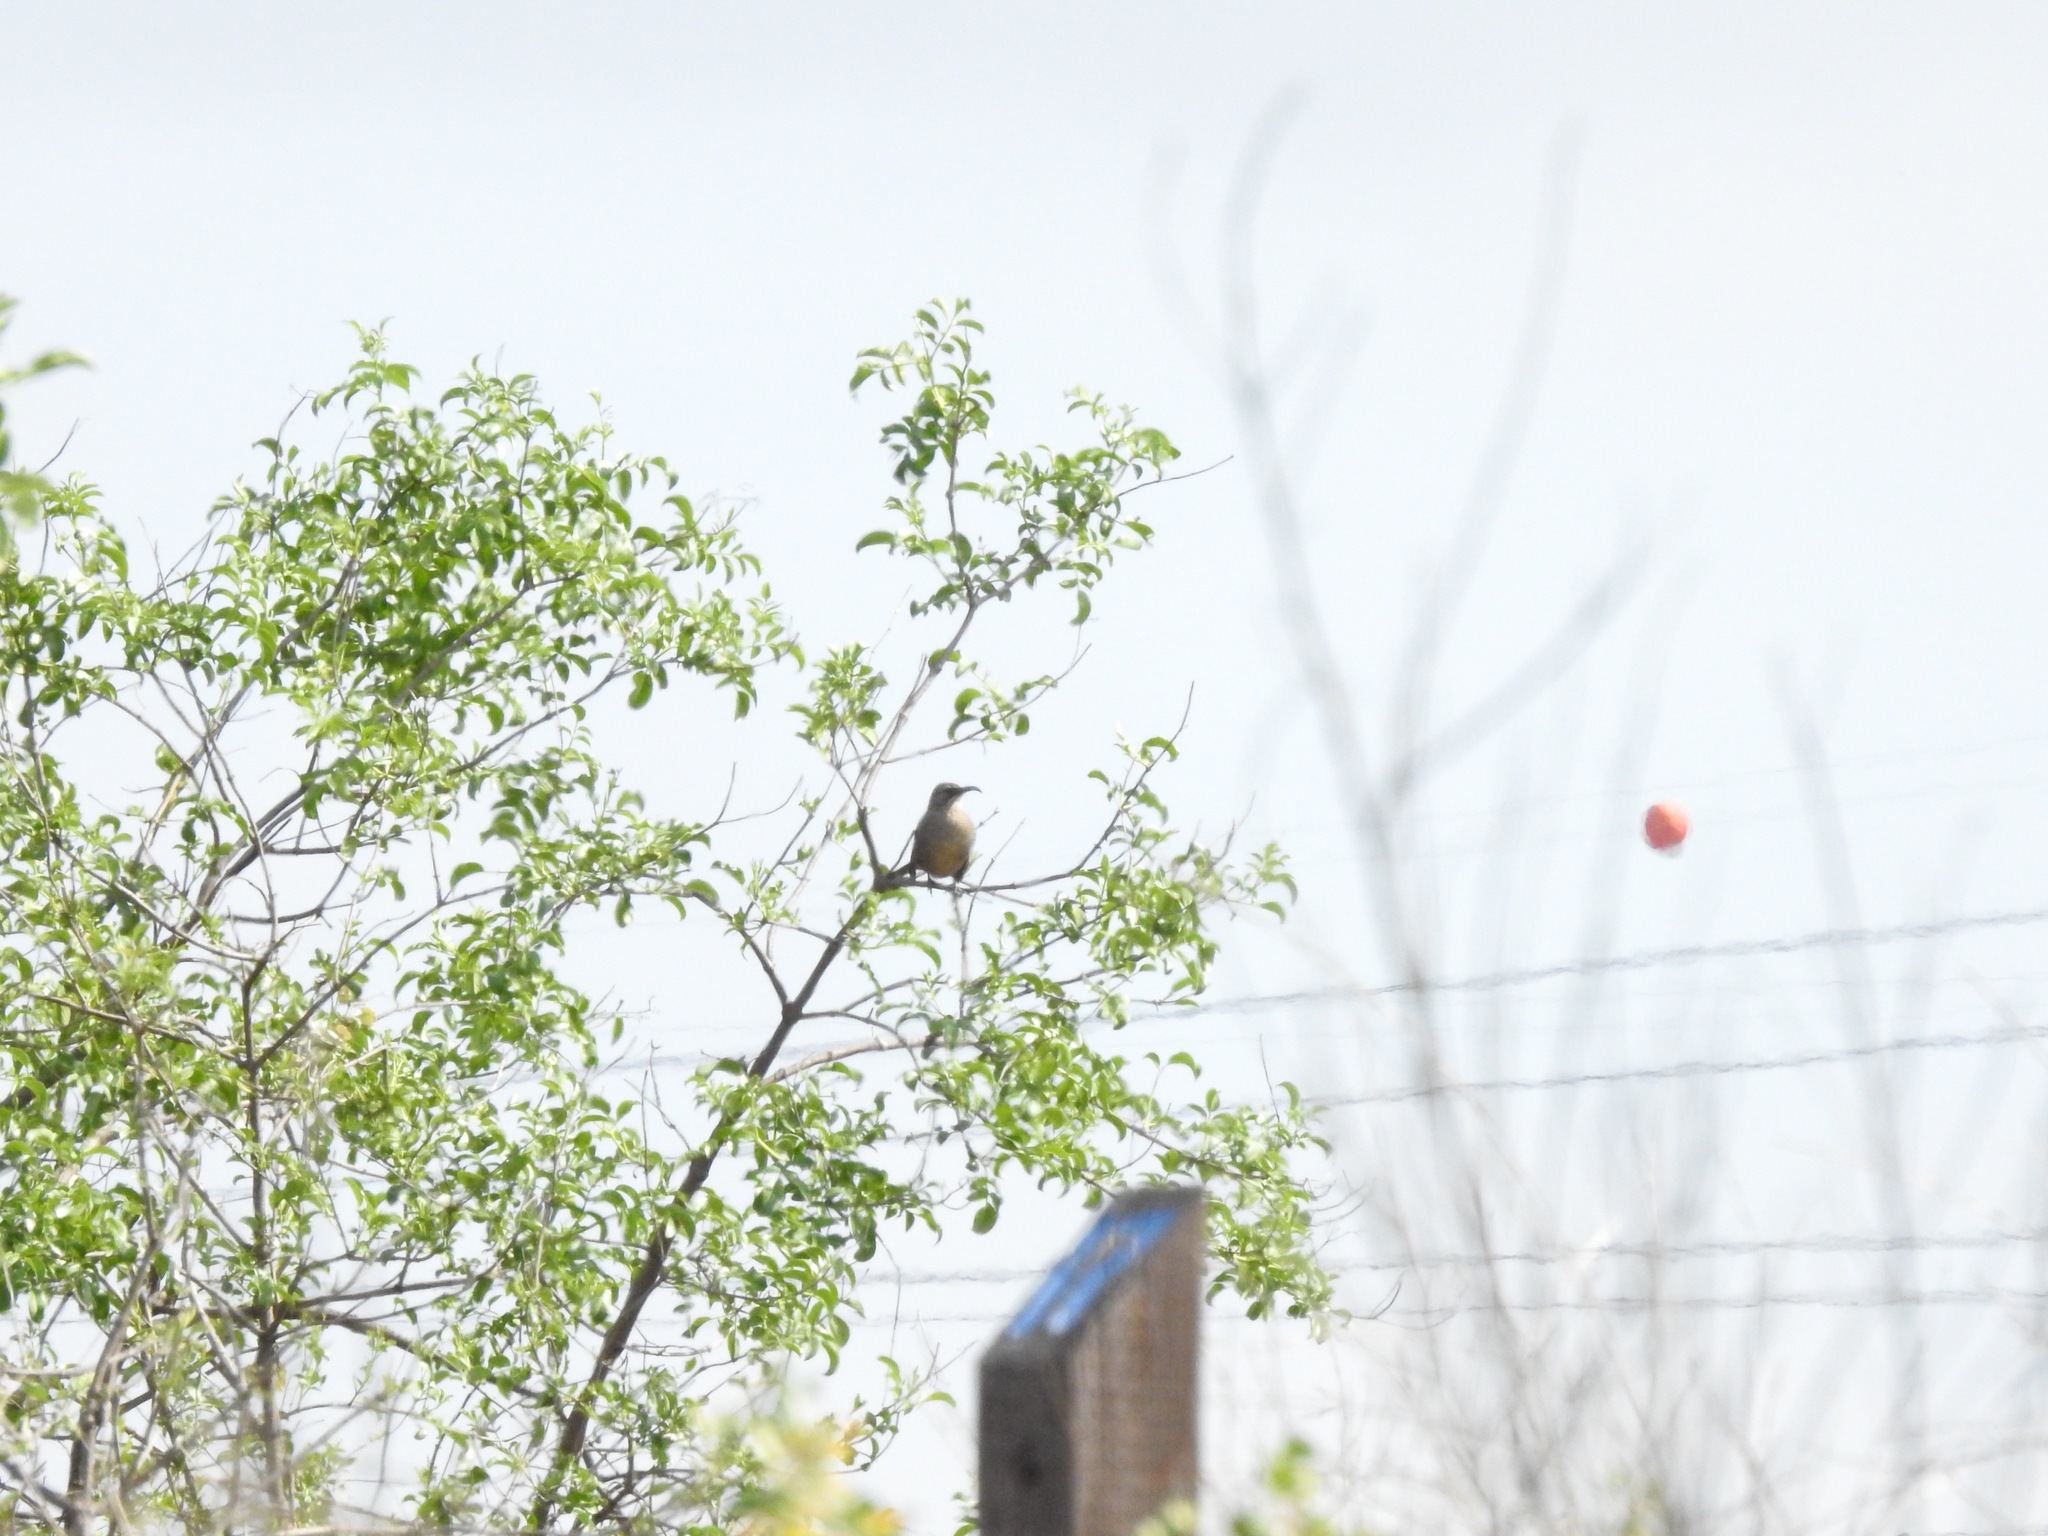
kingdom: Animalia
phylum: Chordata
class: Aves
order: Passeriformes
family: Mimidae
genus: Toxostoma
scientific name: Toxostoma redivivum
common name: California thrasher
